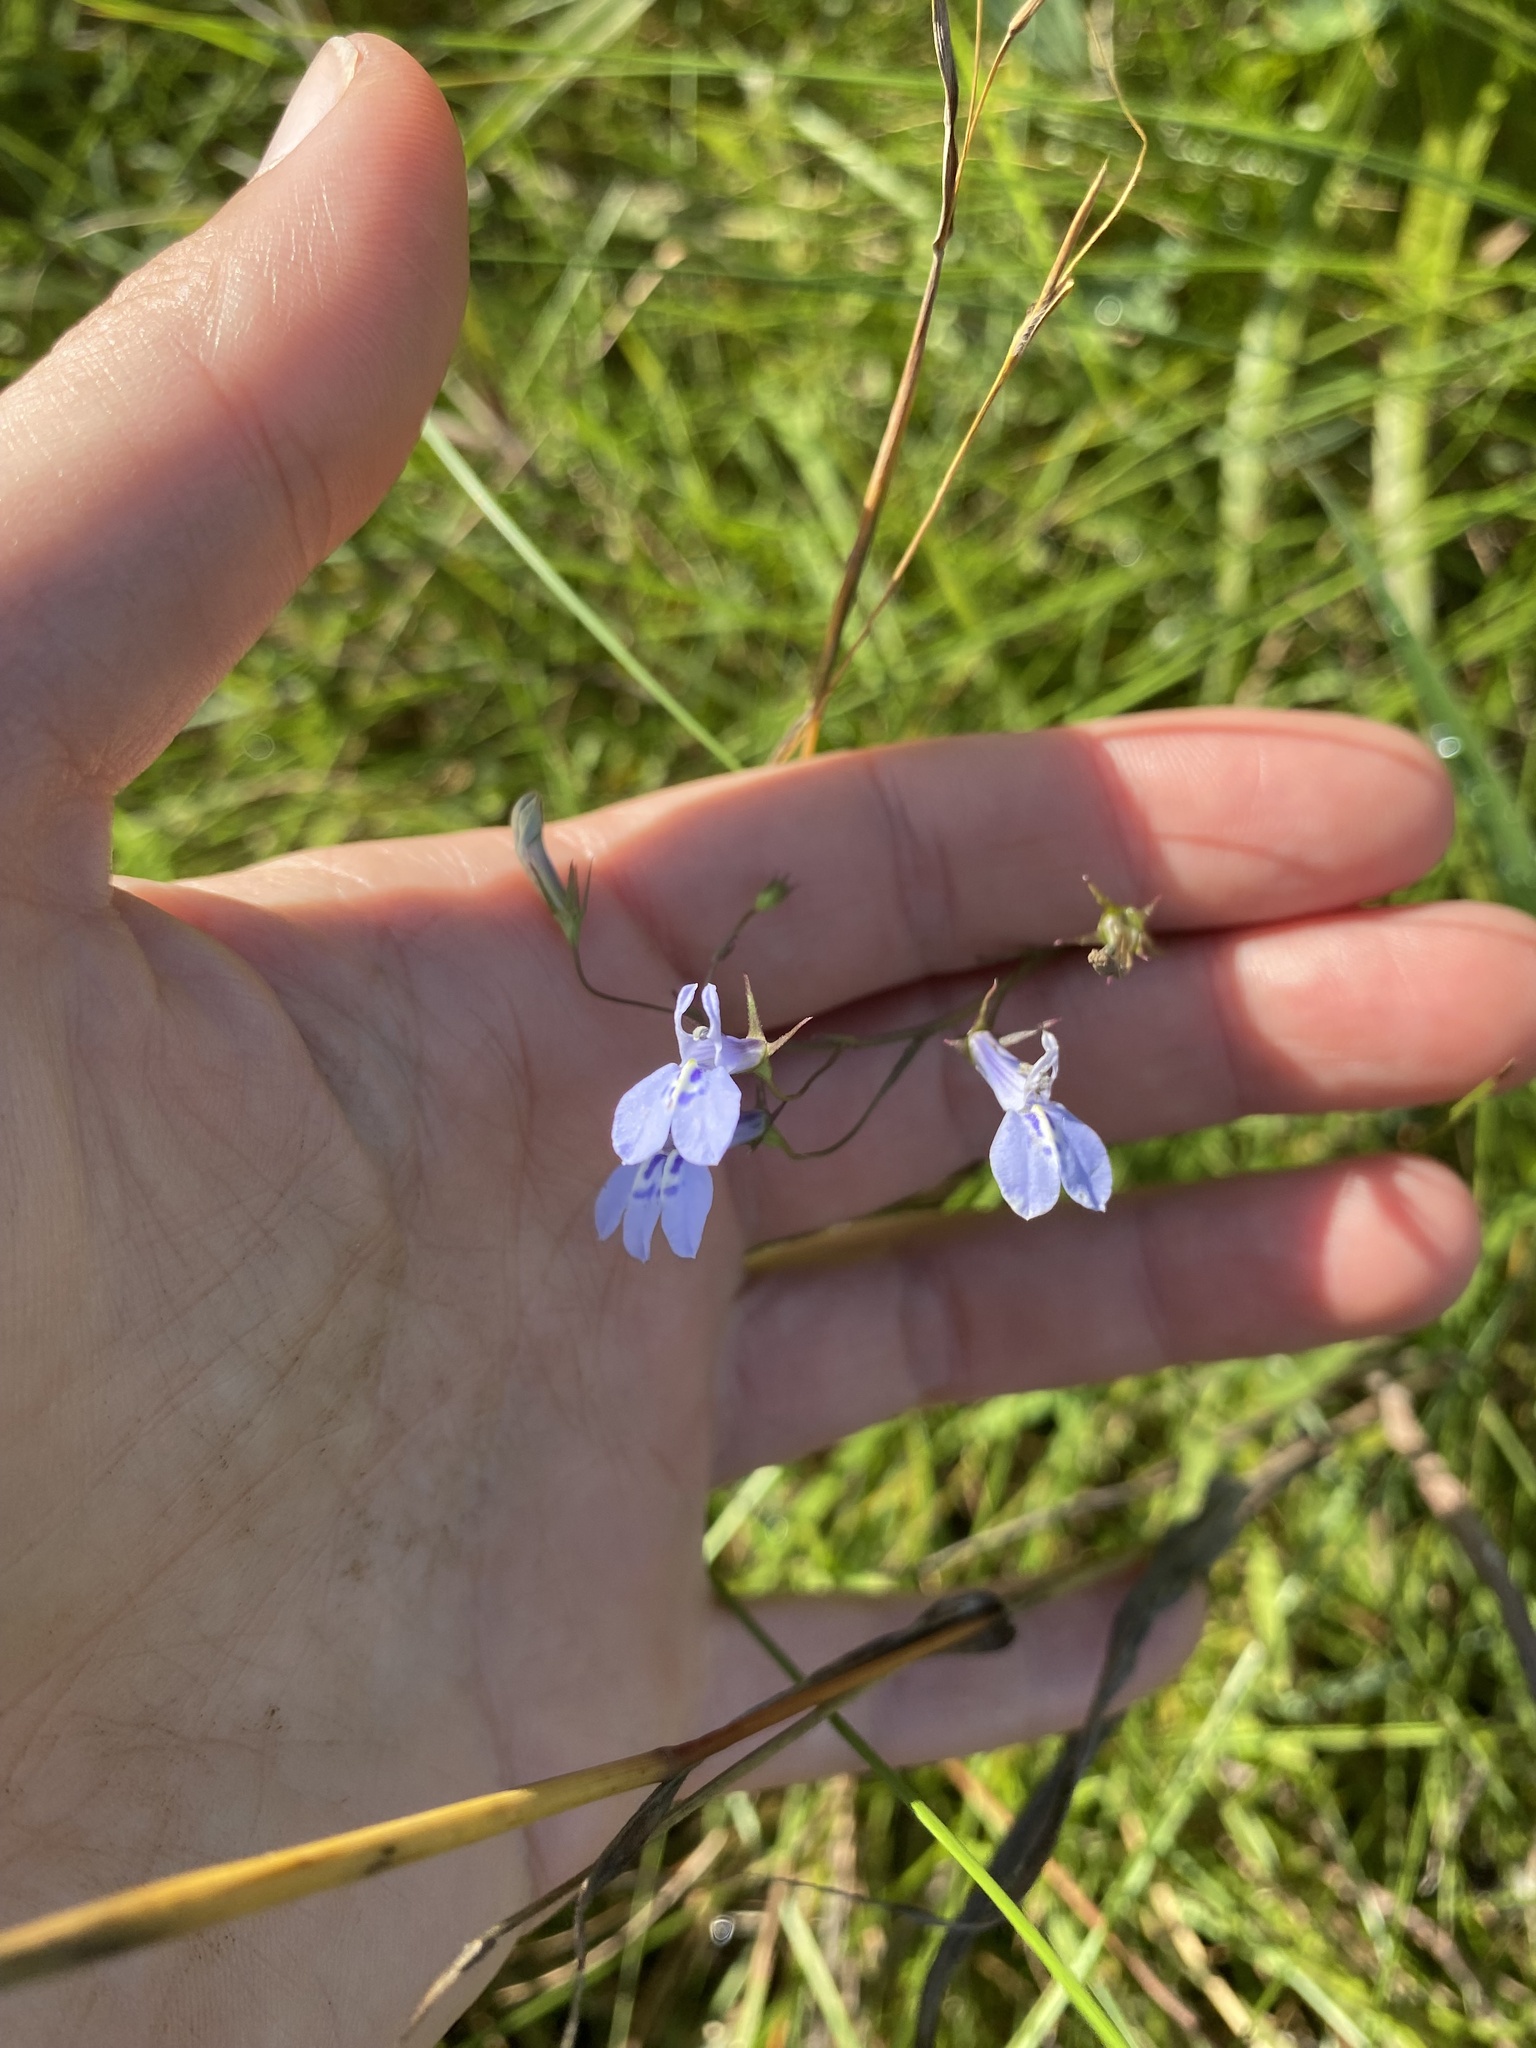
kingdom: Plantae
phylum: Tracheophyta
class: Magnoliopsida
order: Asterales
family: Campanulaceae
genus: Lobelia
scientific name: Lobelia flaccida
